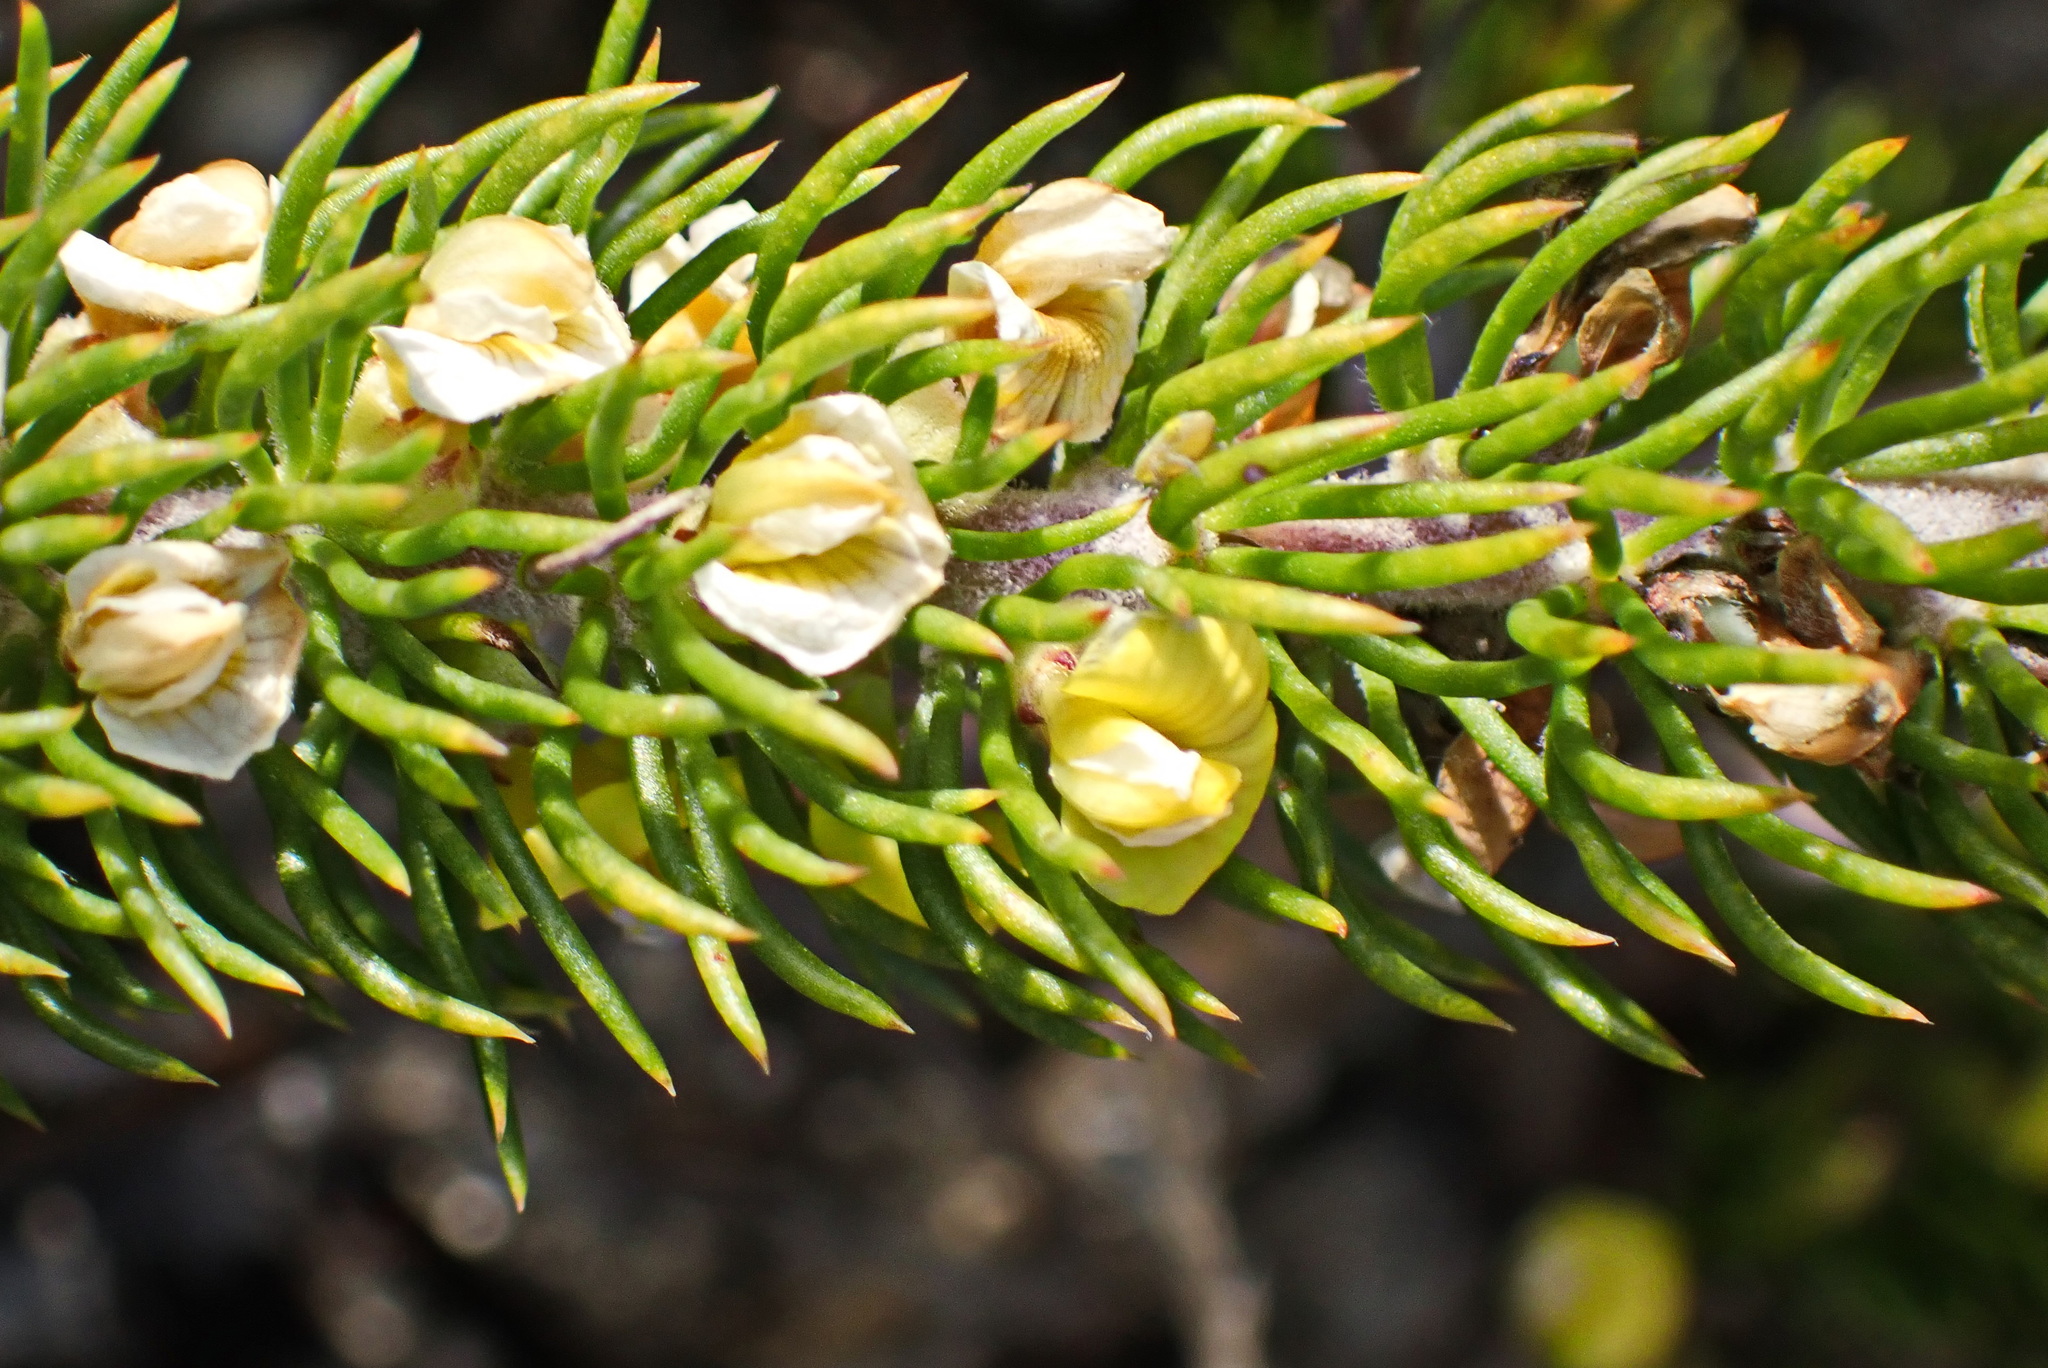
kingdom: Plantae
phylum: Tracheophyta
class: Magnoliopsida
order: Fabales
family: Fabaceae
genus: Aspalathus
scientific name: Aspalathus incurvifolia
